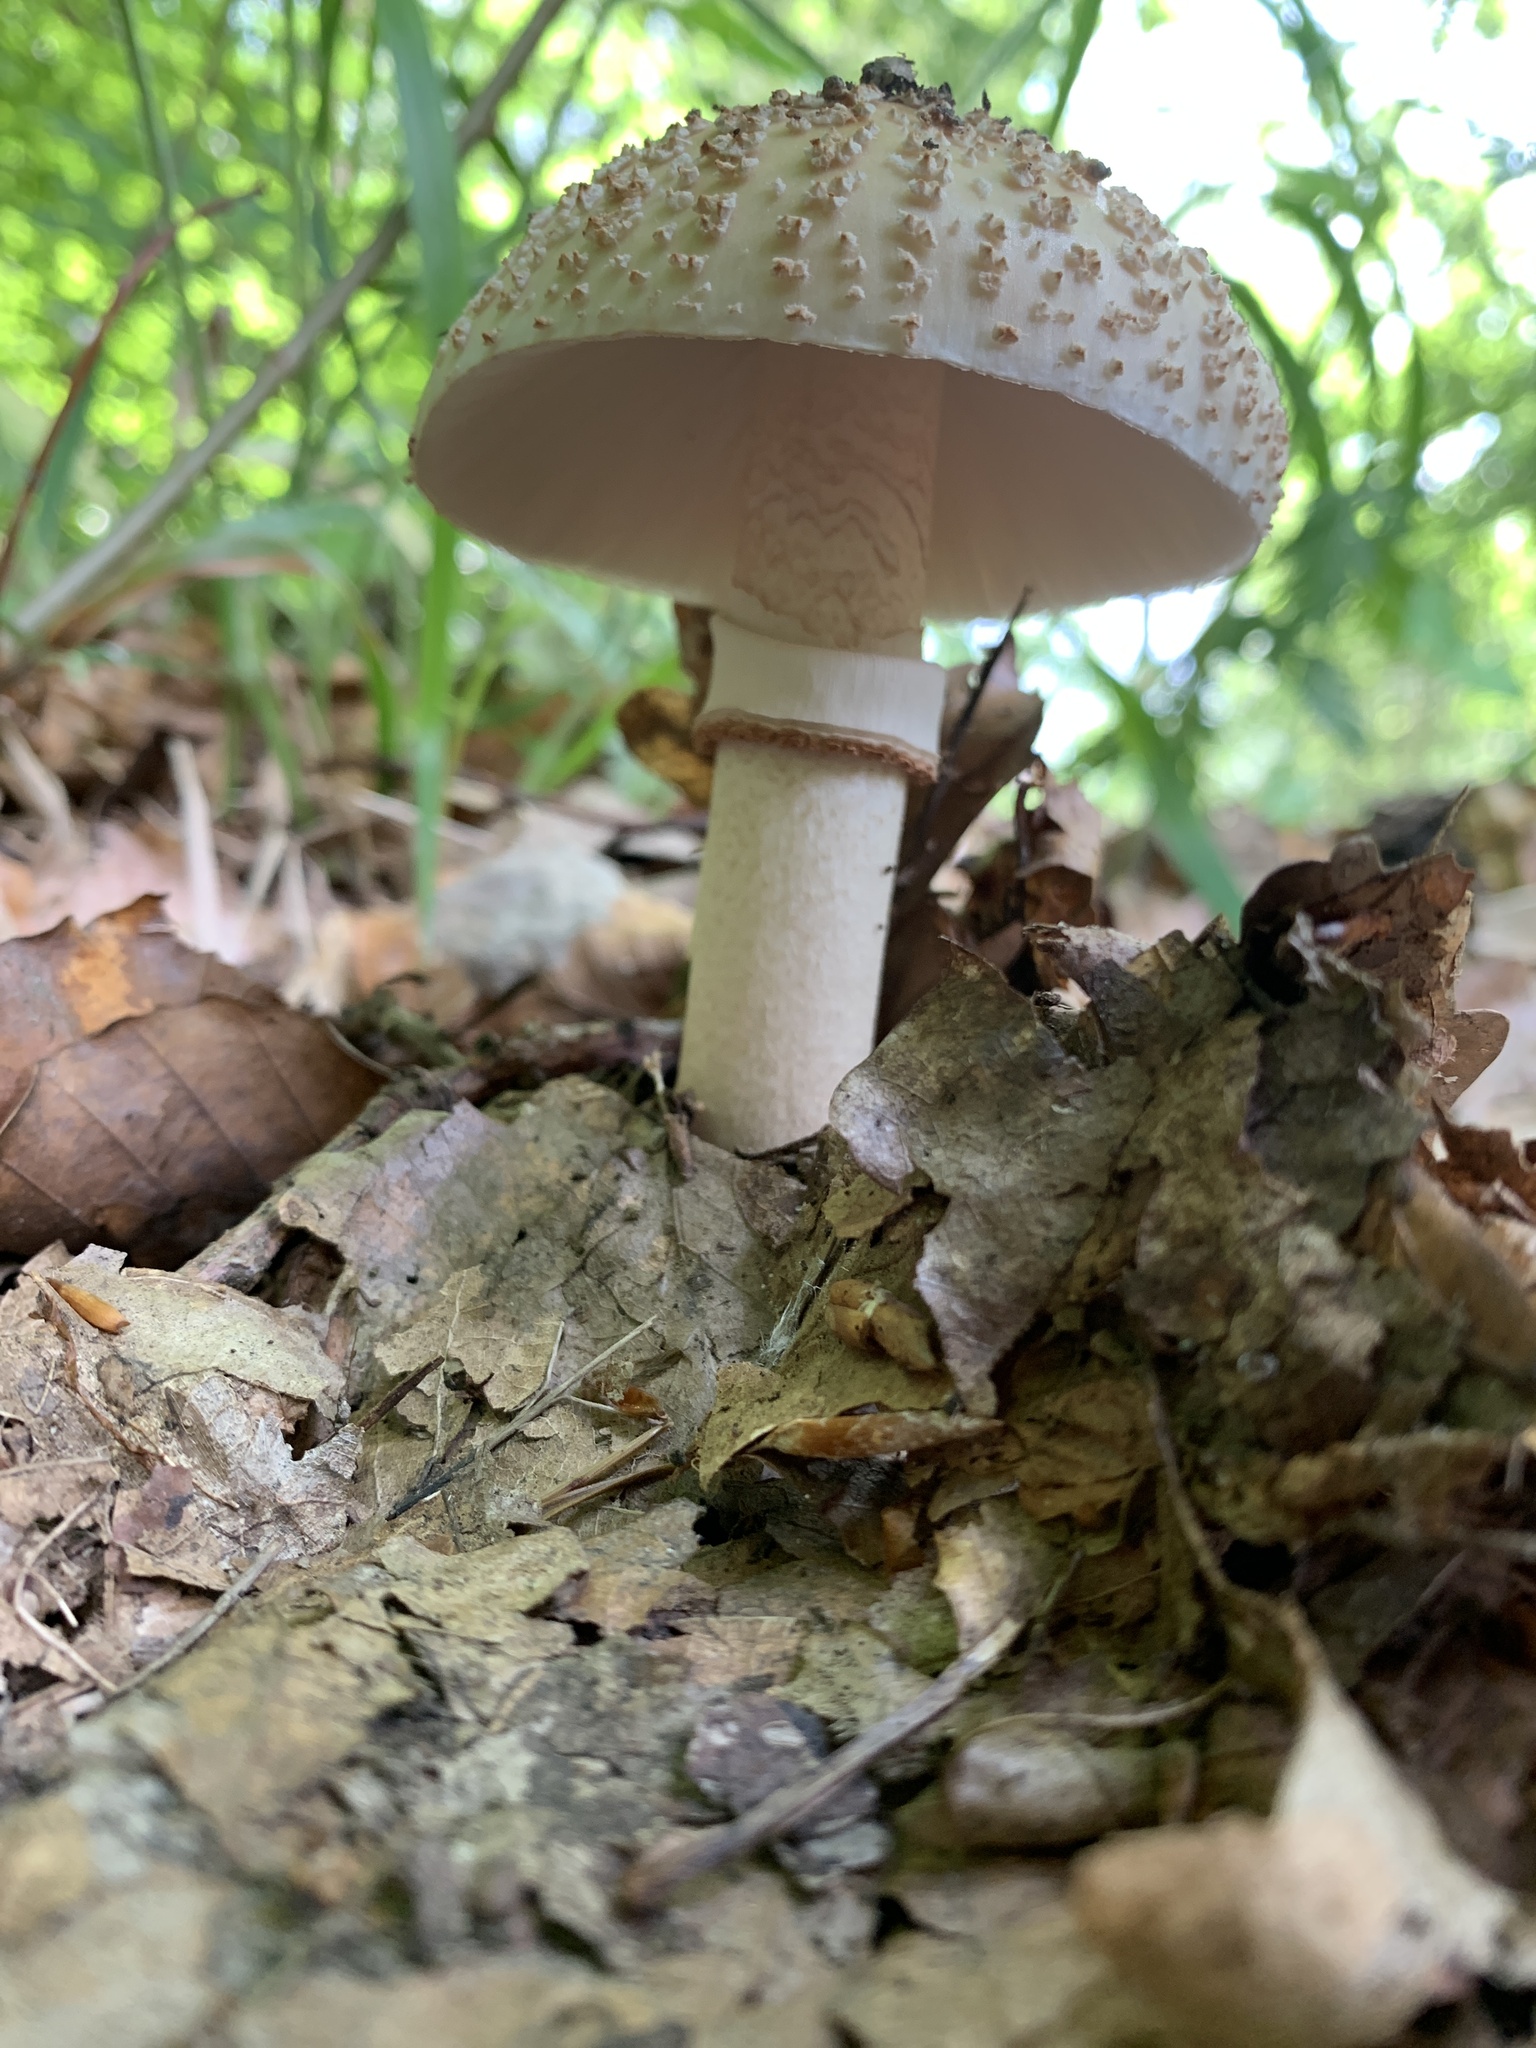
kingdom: Fungi
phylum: Basidiomycota
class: Agaricomycetes
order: Agaricales
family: Amanitaceae
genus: Amanita
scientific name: Amanita excelsa
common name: European false blusher
